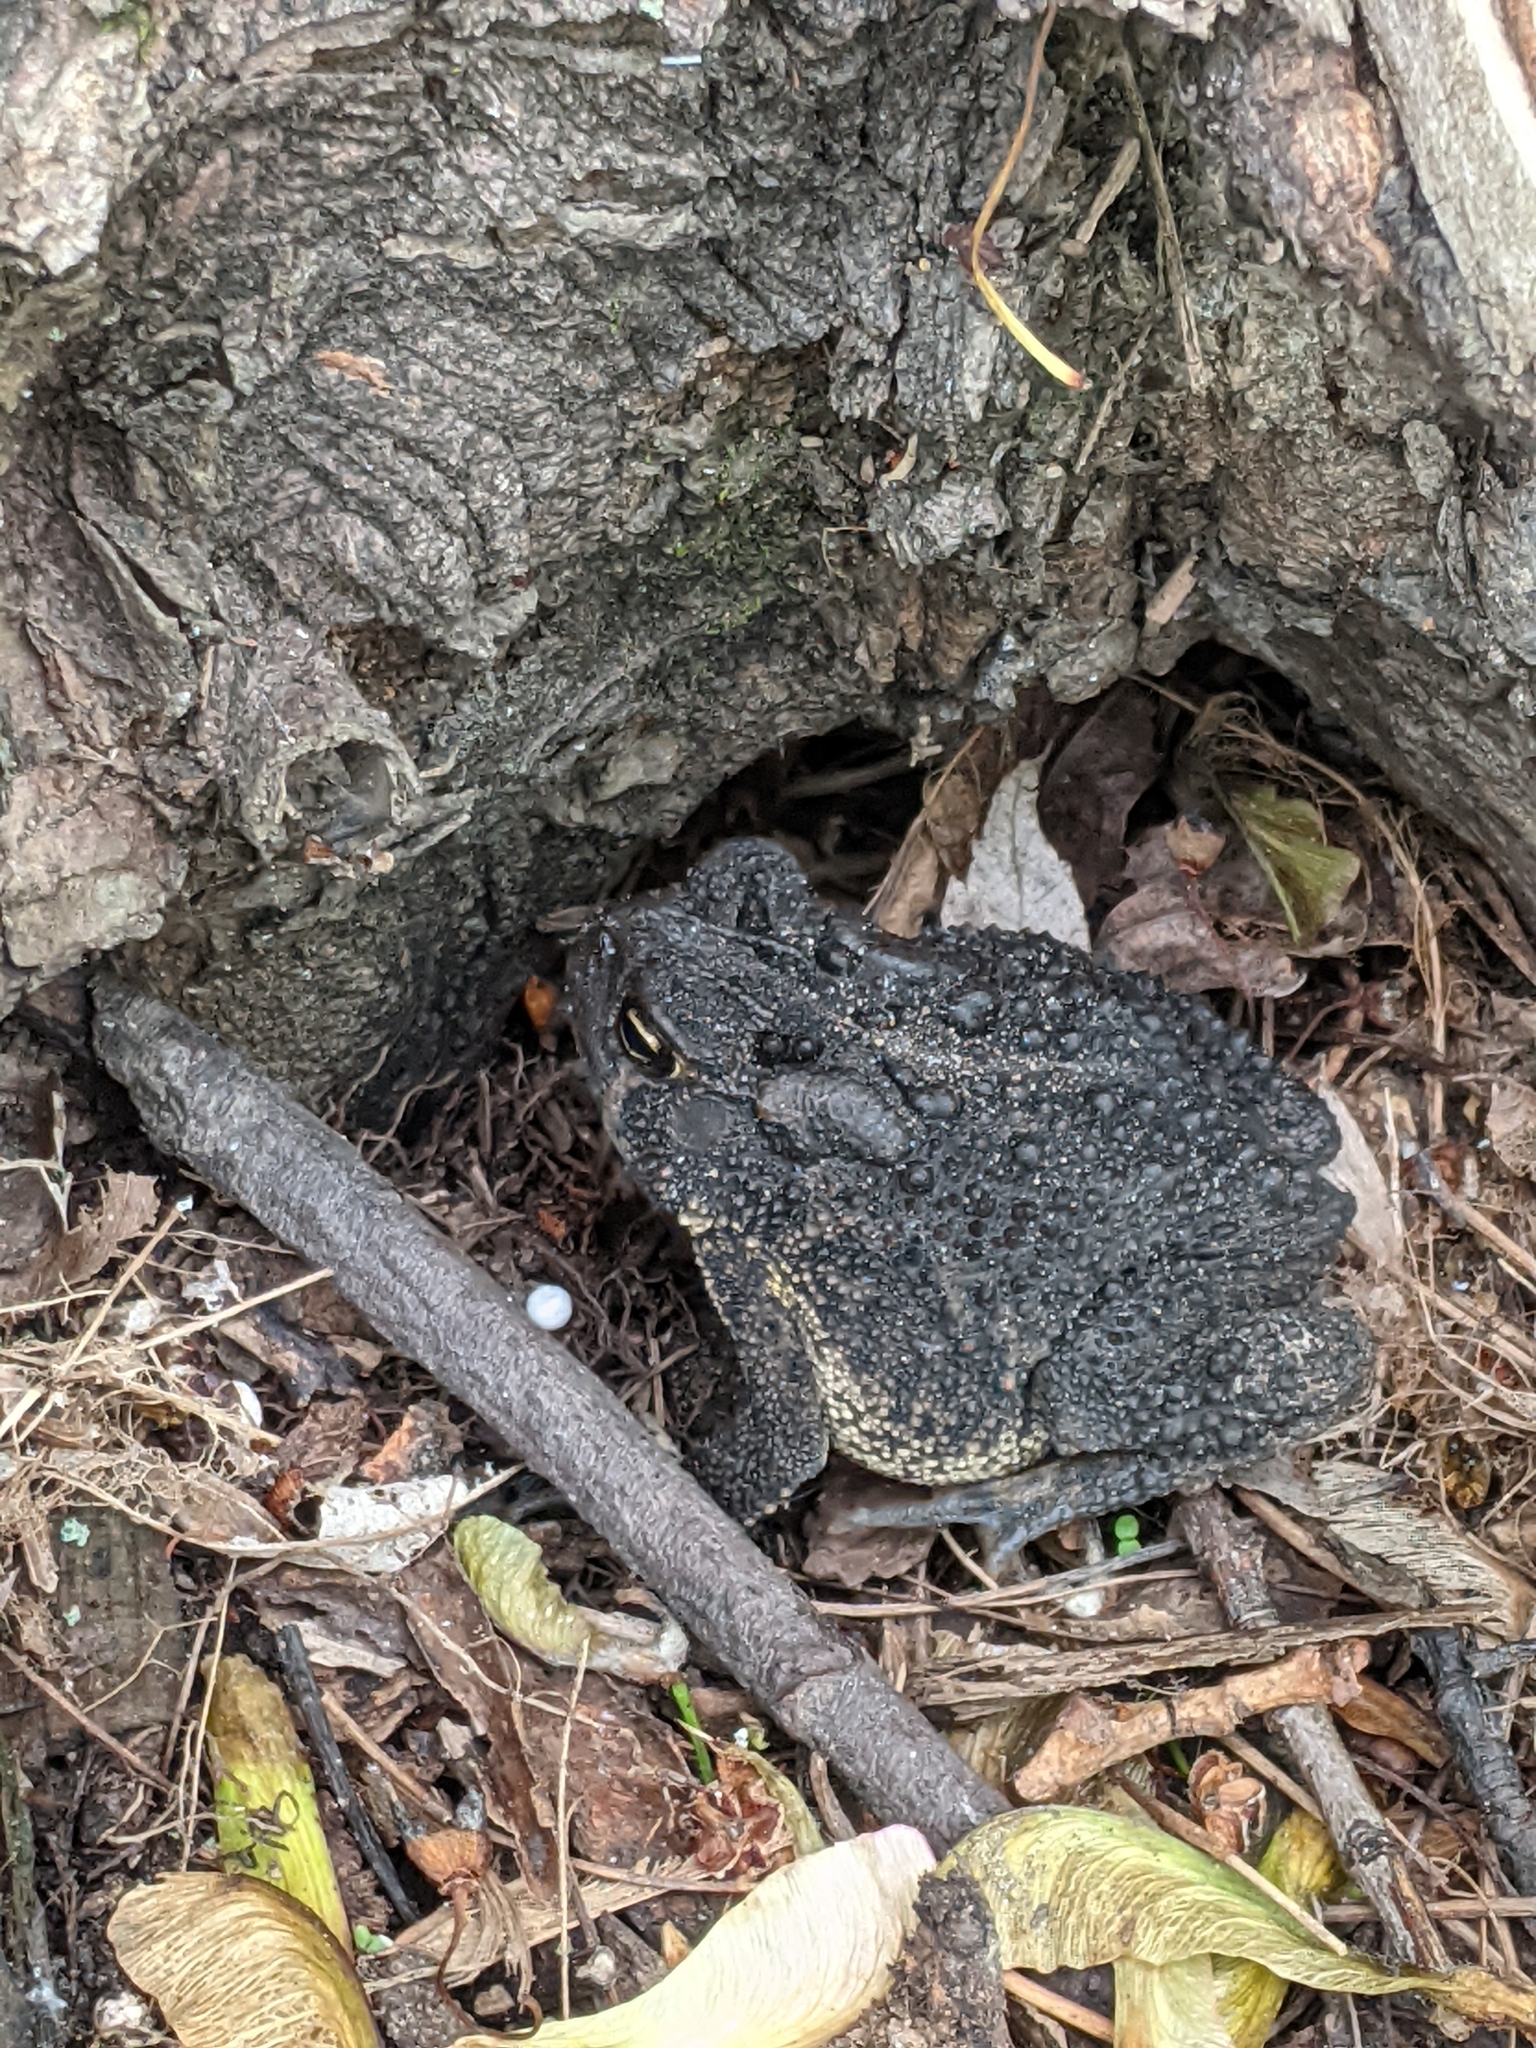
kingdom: Animalia
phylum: Chordata
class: Amphibia
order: Anura
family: Bufonidae
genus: Anaxyrus
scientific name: Anaxyrus americanus
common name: American toad
